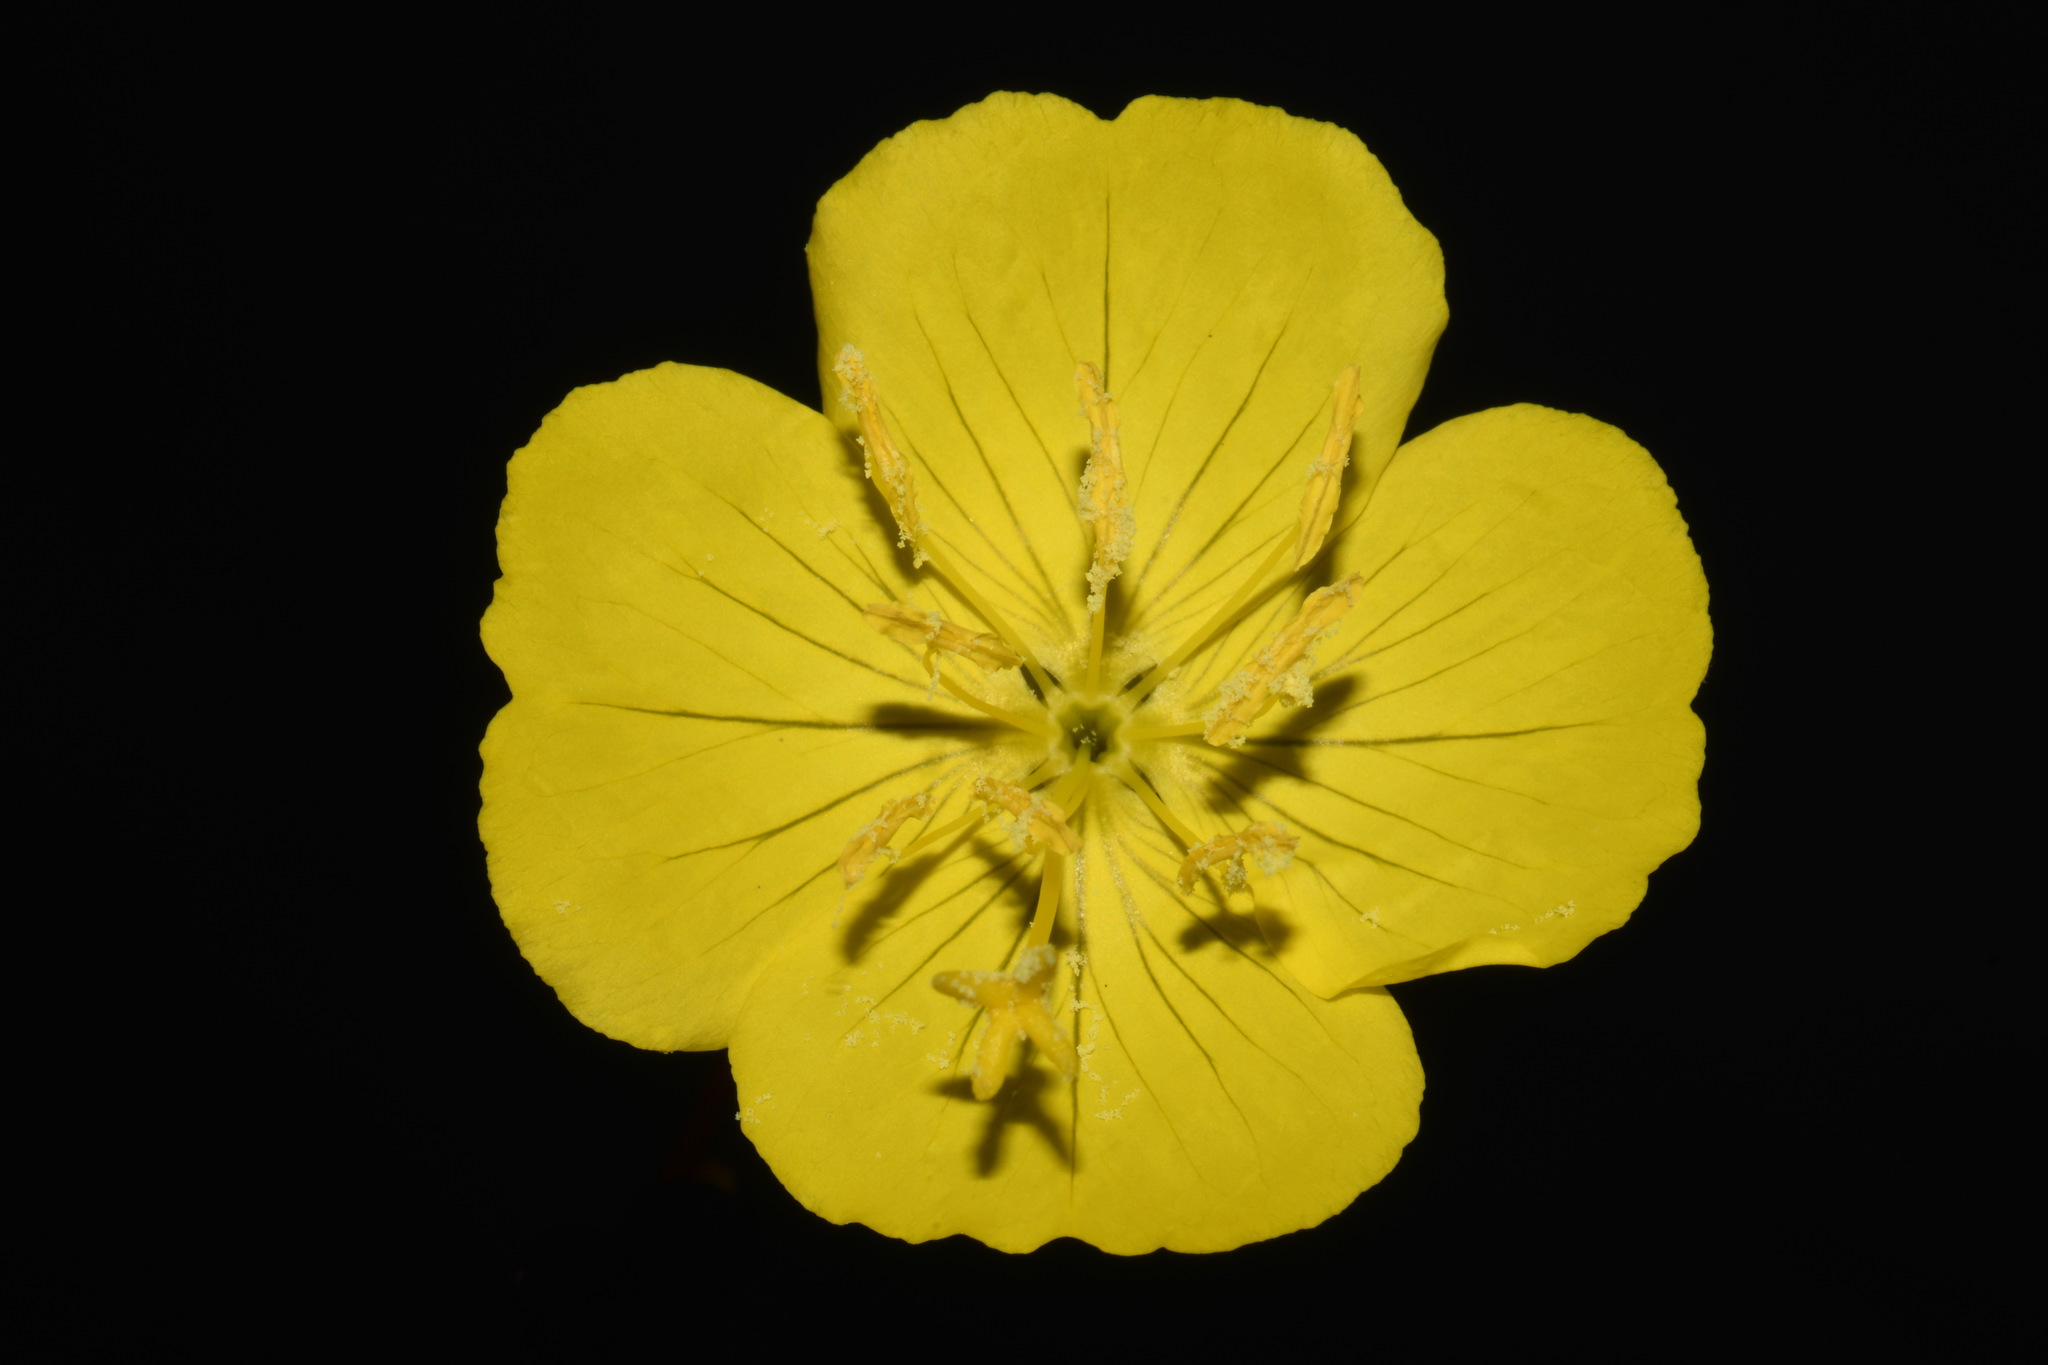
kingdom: Plantae
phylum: Tracheophyta
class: Magnoliopsida
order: Myrtales
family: Onagraceae
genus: Oenothera
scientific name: Oenothera fruticosa
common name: Southern sundrops
